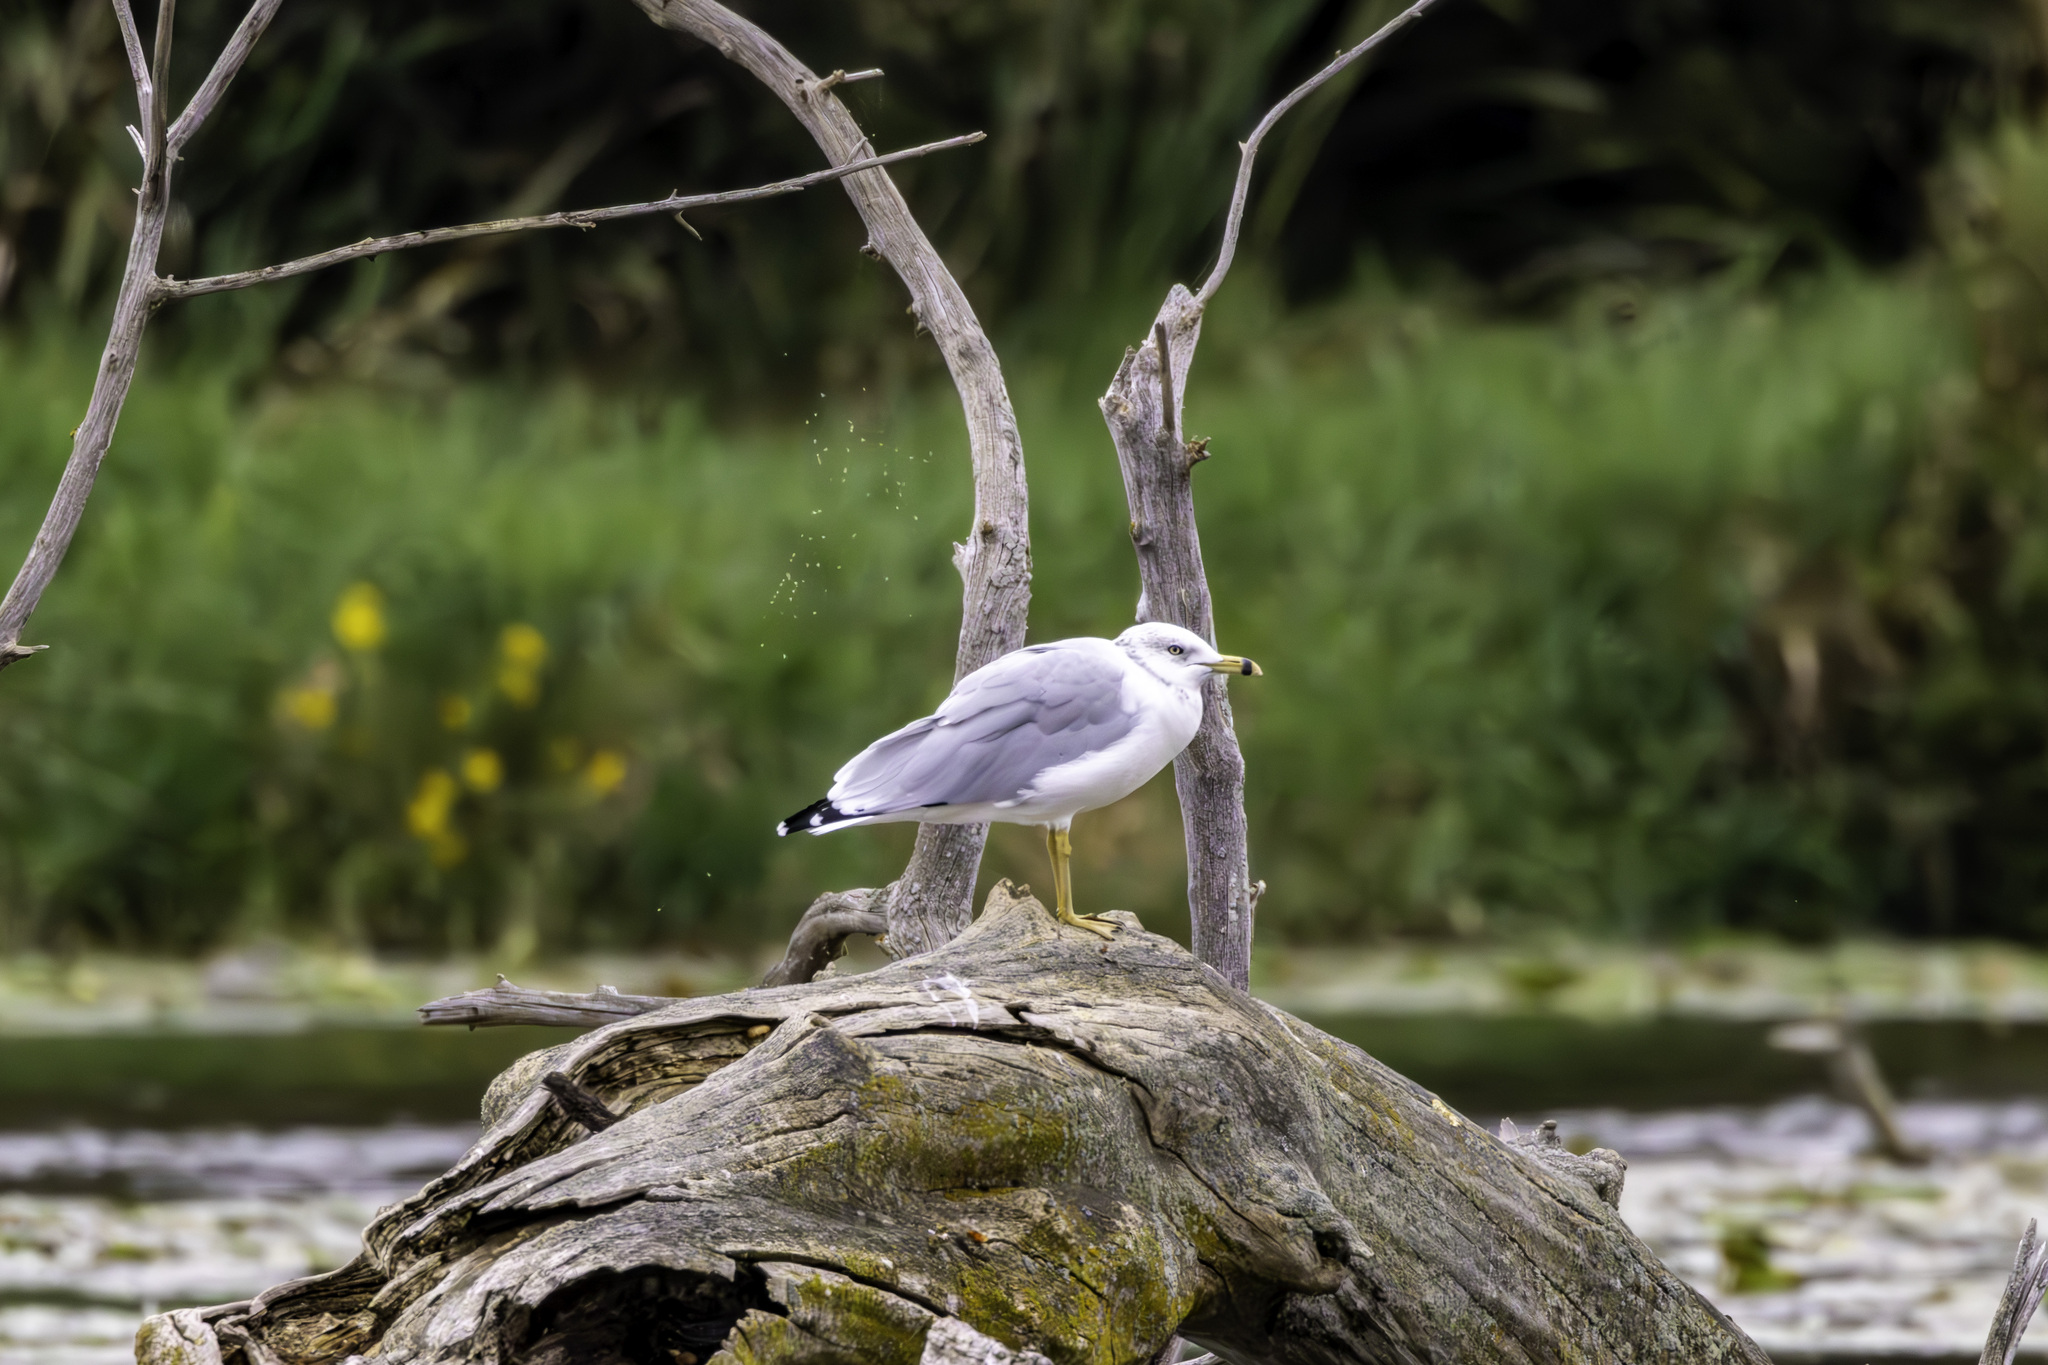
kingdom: Animalia
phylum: Chordata
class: Aves
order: Charadriiformes
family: Laridae
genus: Larus
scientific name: Larus delawarensis
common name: Ring-billed gull
